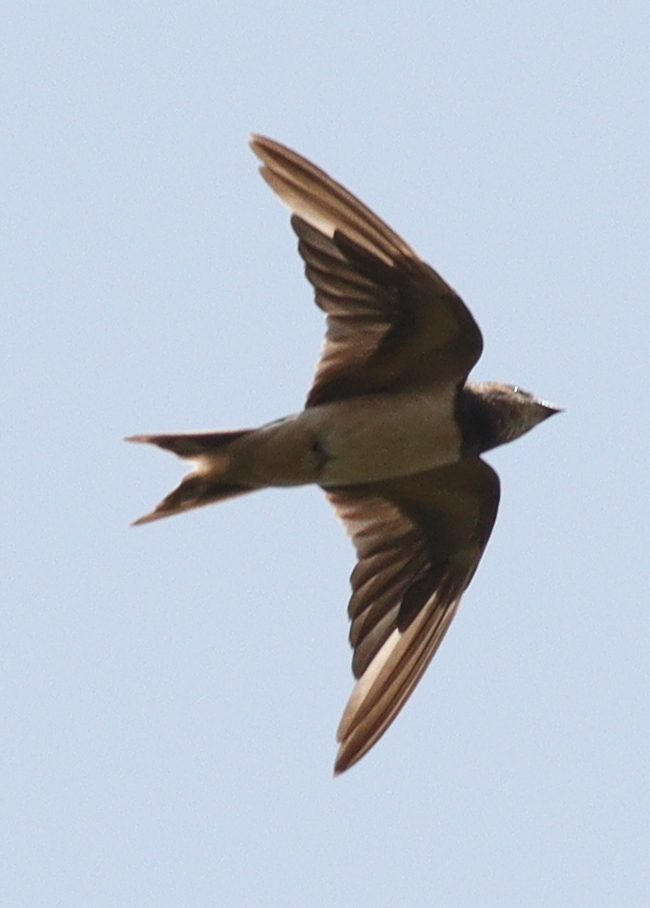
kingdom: Animalia
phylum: Chordata
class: Aves
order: Passeriformes
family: Hirundinidae
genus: Hirundo
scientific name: Hirundo rustica
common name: Barn swallow
